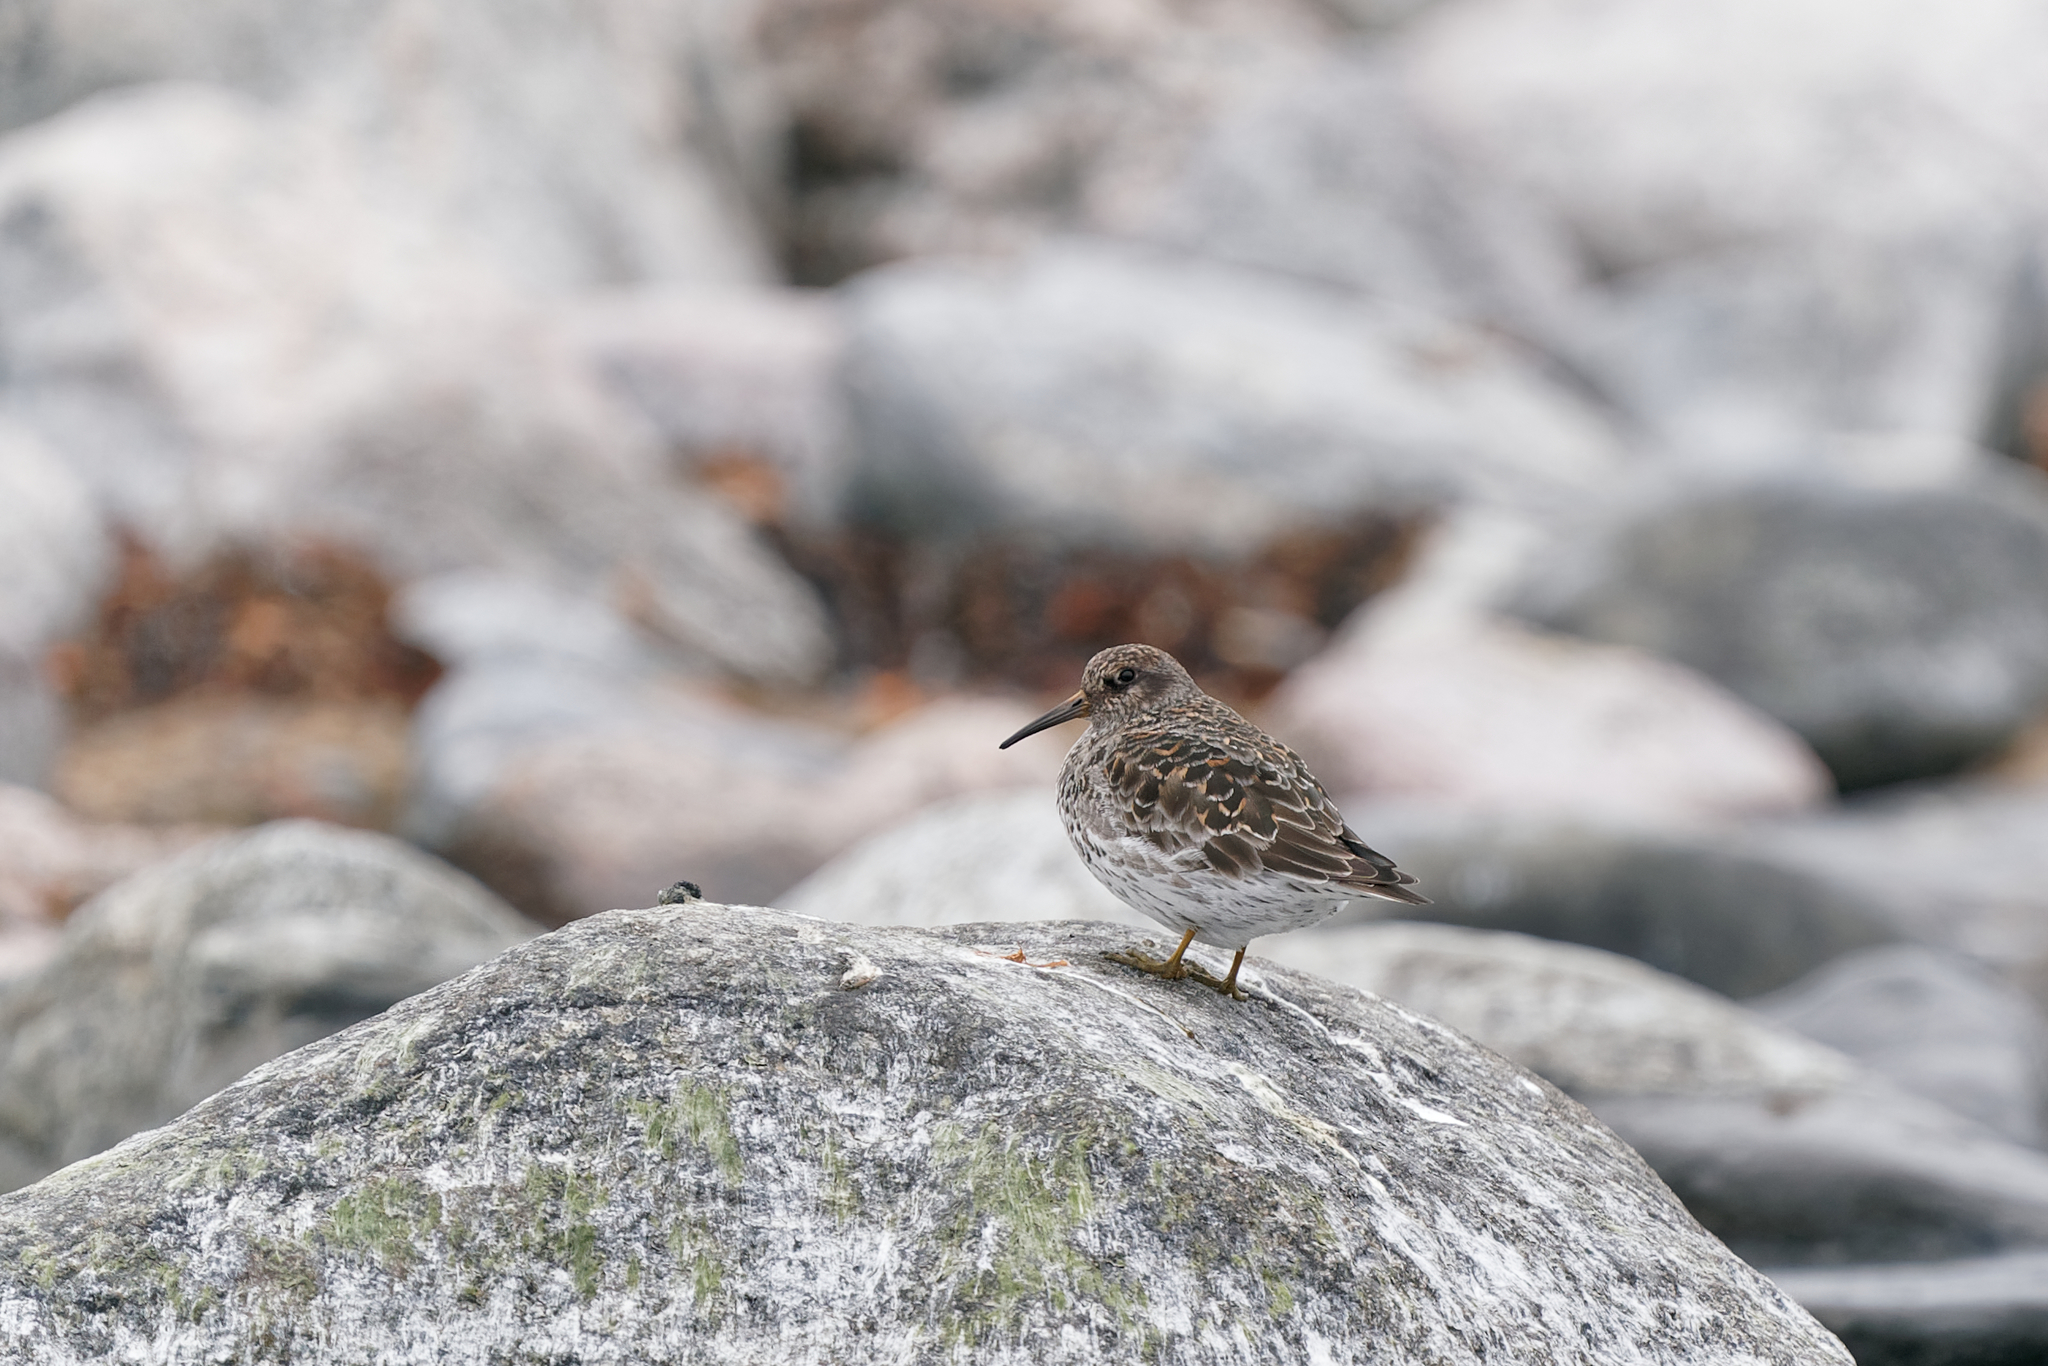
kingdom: Animalia
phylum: Chordata
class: Aves
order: Charadriiformes
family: Scolopacidae
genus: Calidris
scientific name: Calidris maritima
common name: Purple sandpiper
